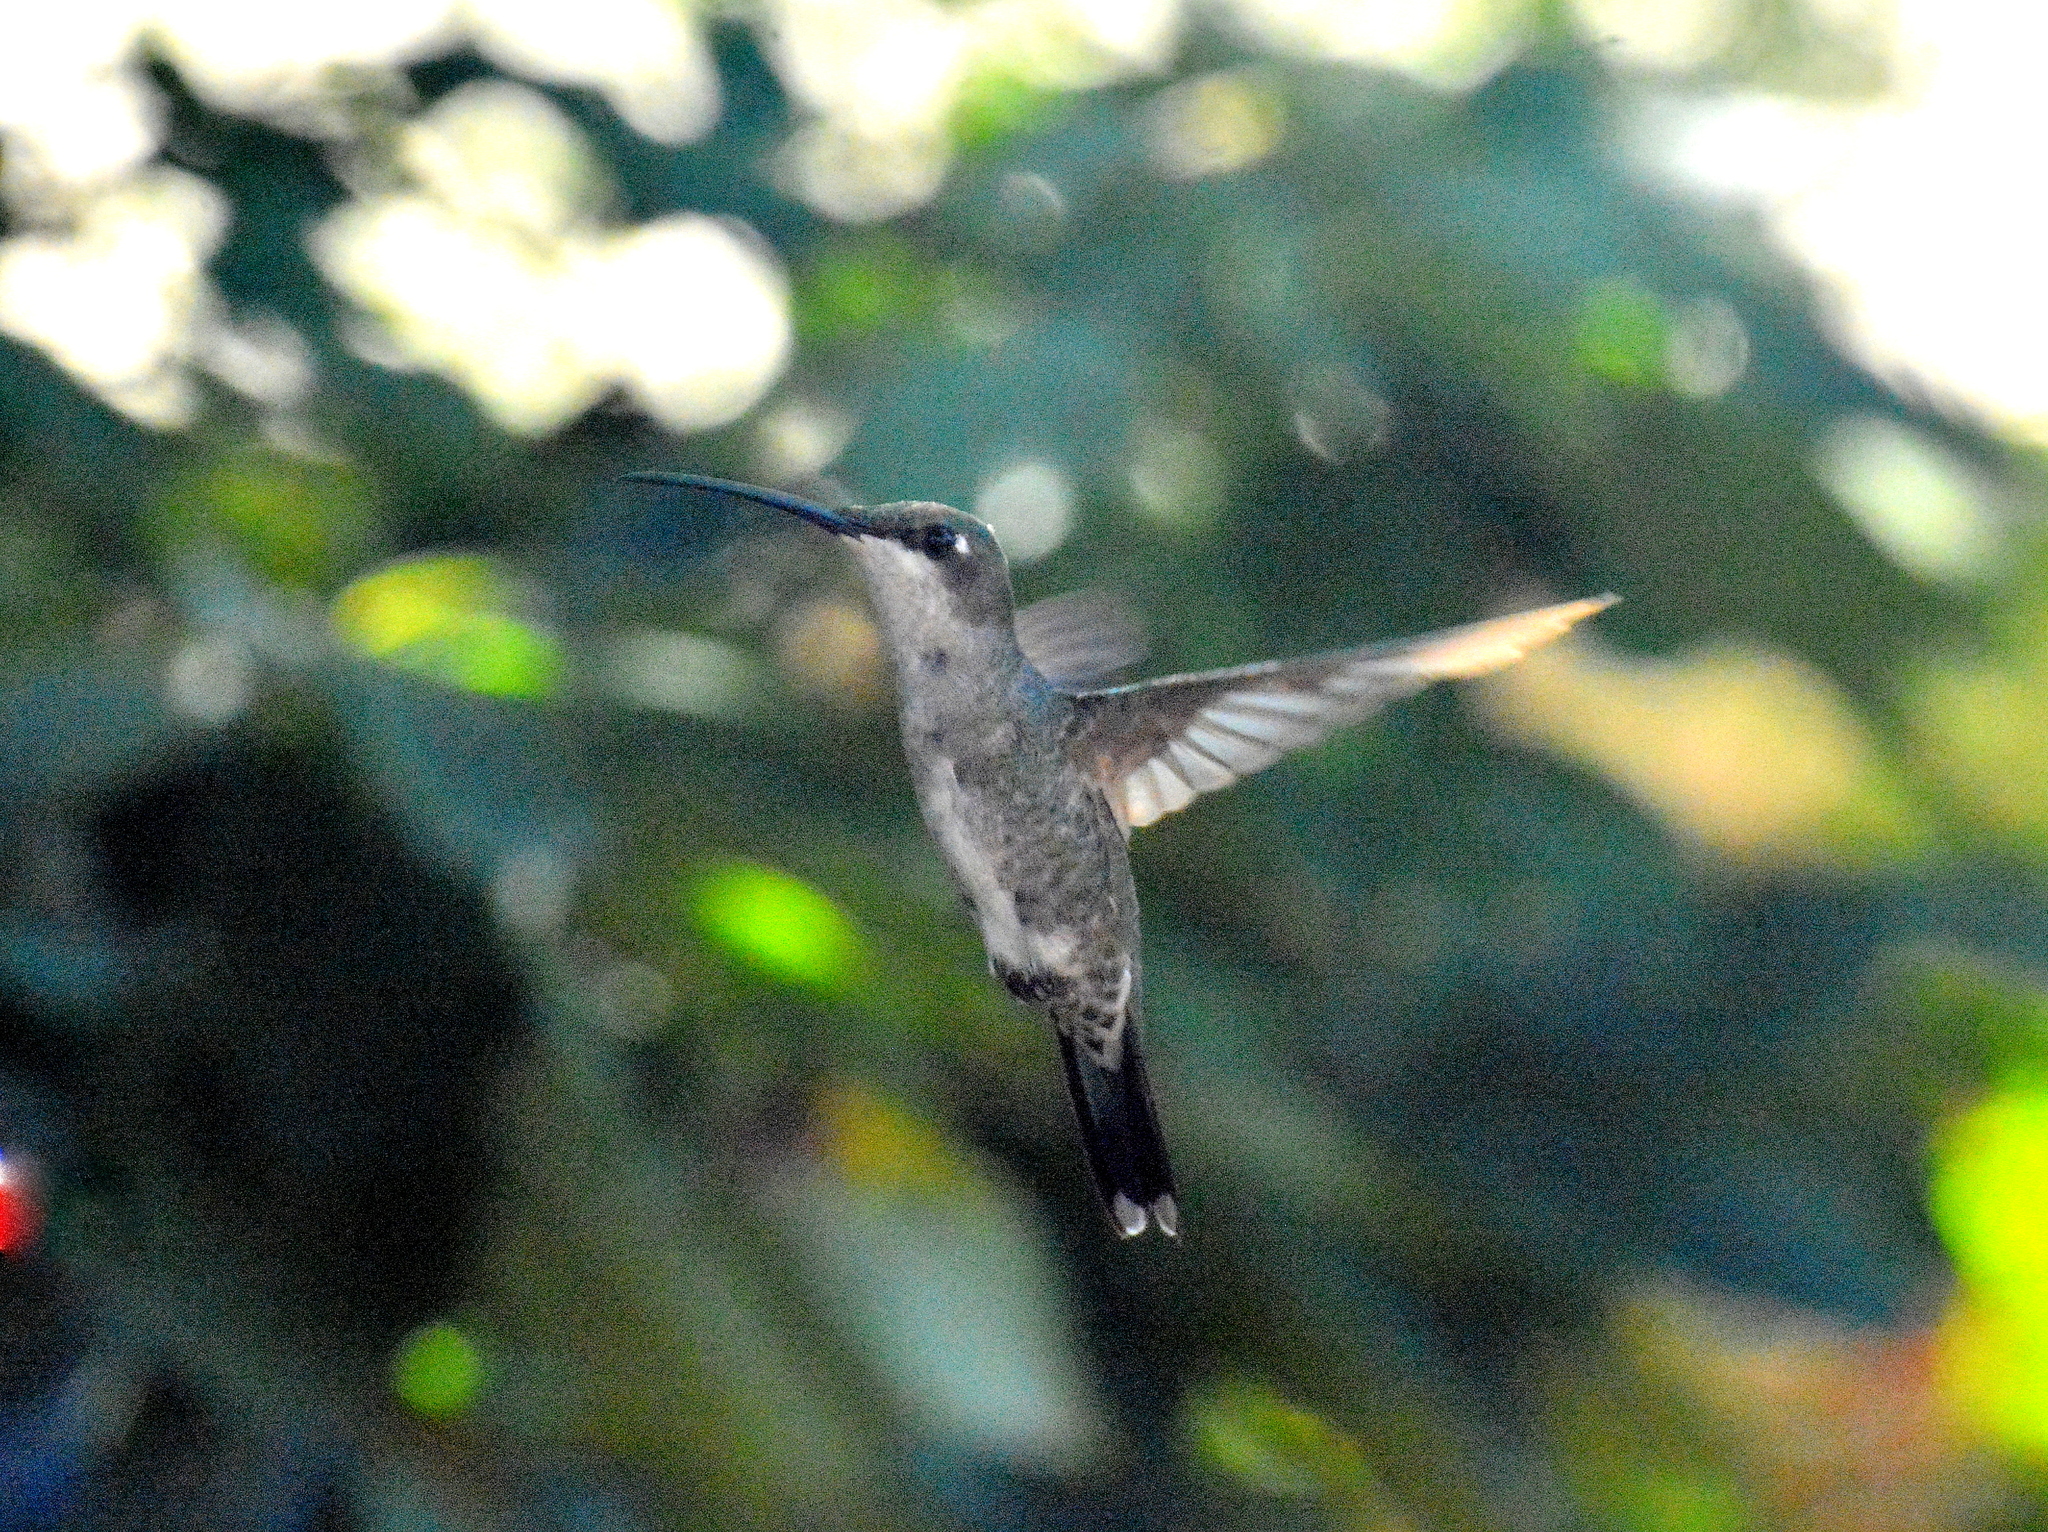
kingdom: Animalia
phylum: Chordata
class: Aves
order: Apodiformes
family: Trochilidae
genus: Heliomaster
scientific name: Heliomaster furcifer
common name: Blue-tufted starthroat
